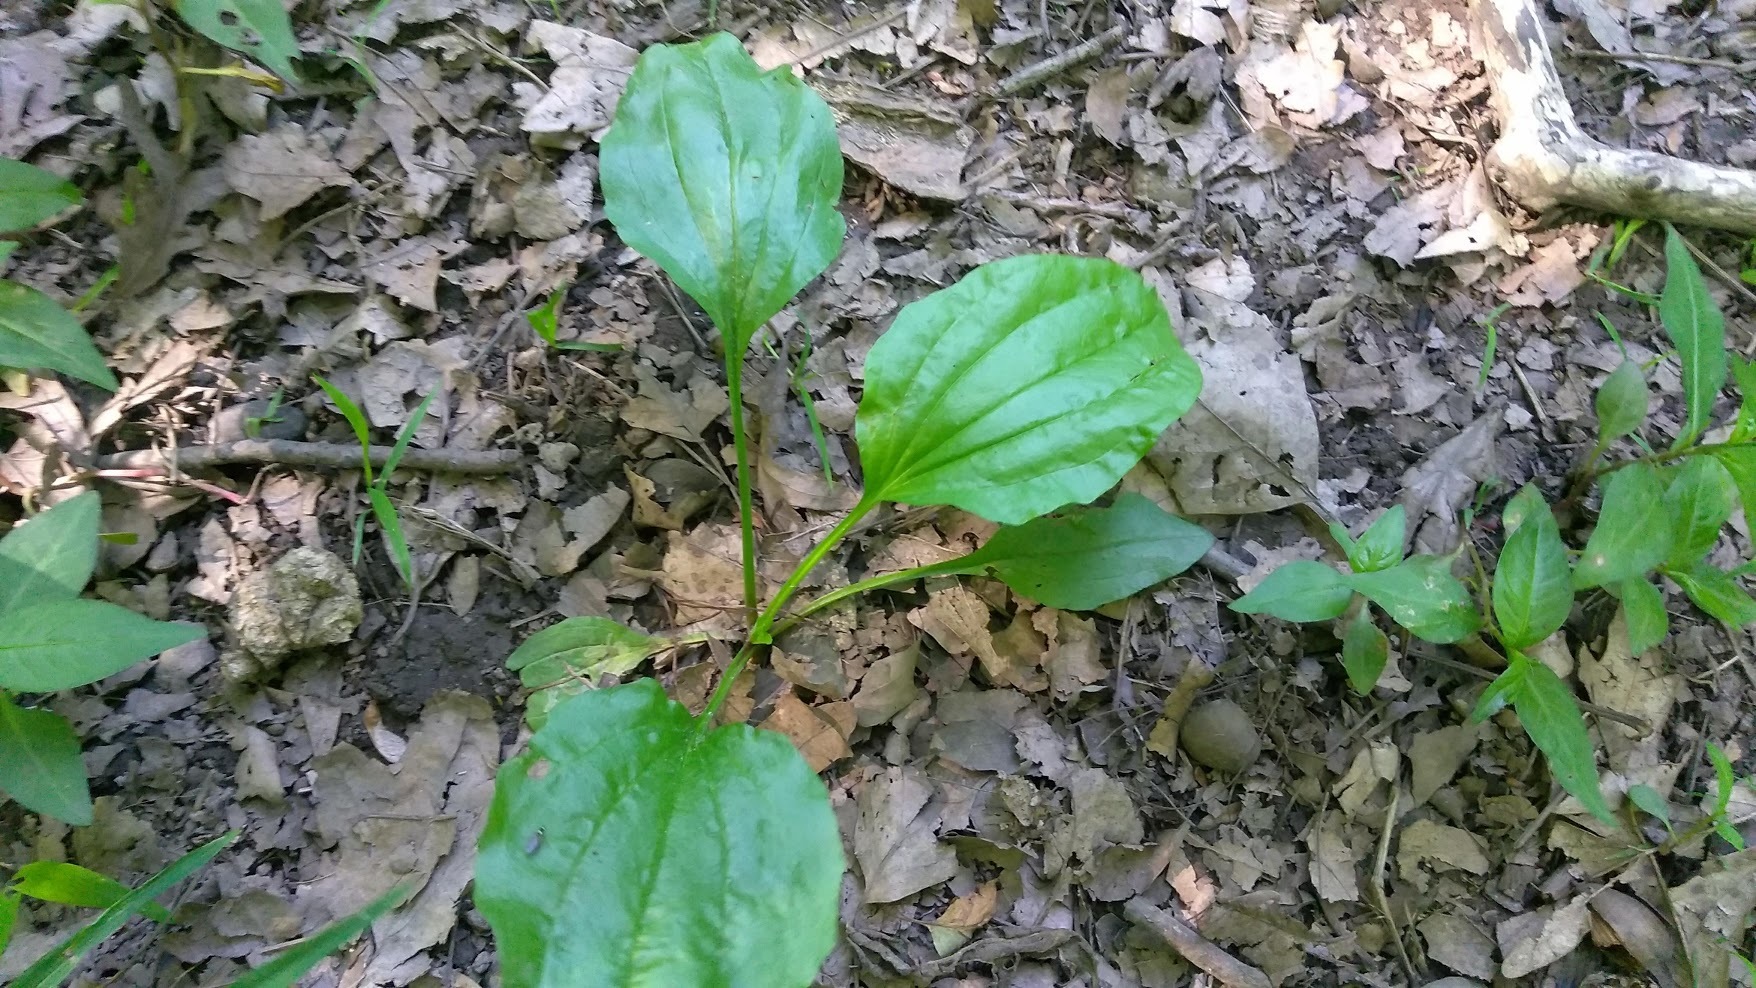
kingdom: Plantae
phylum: Tracheophyta
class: Magnoliopsida
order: Lamiales
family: Plantaginaceae
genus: Plantago
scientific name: Plantago major
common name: Common plantain
